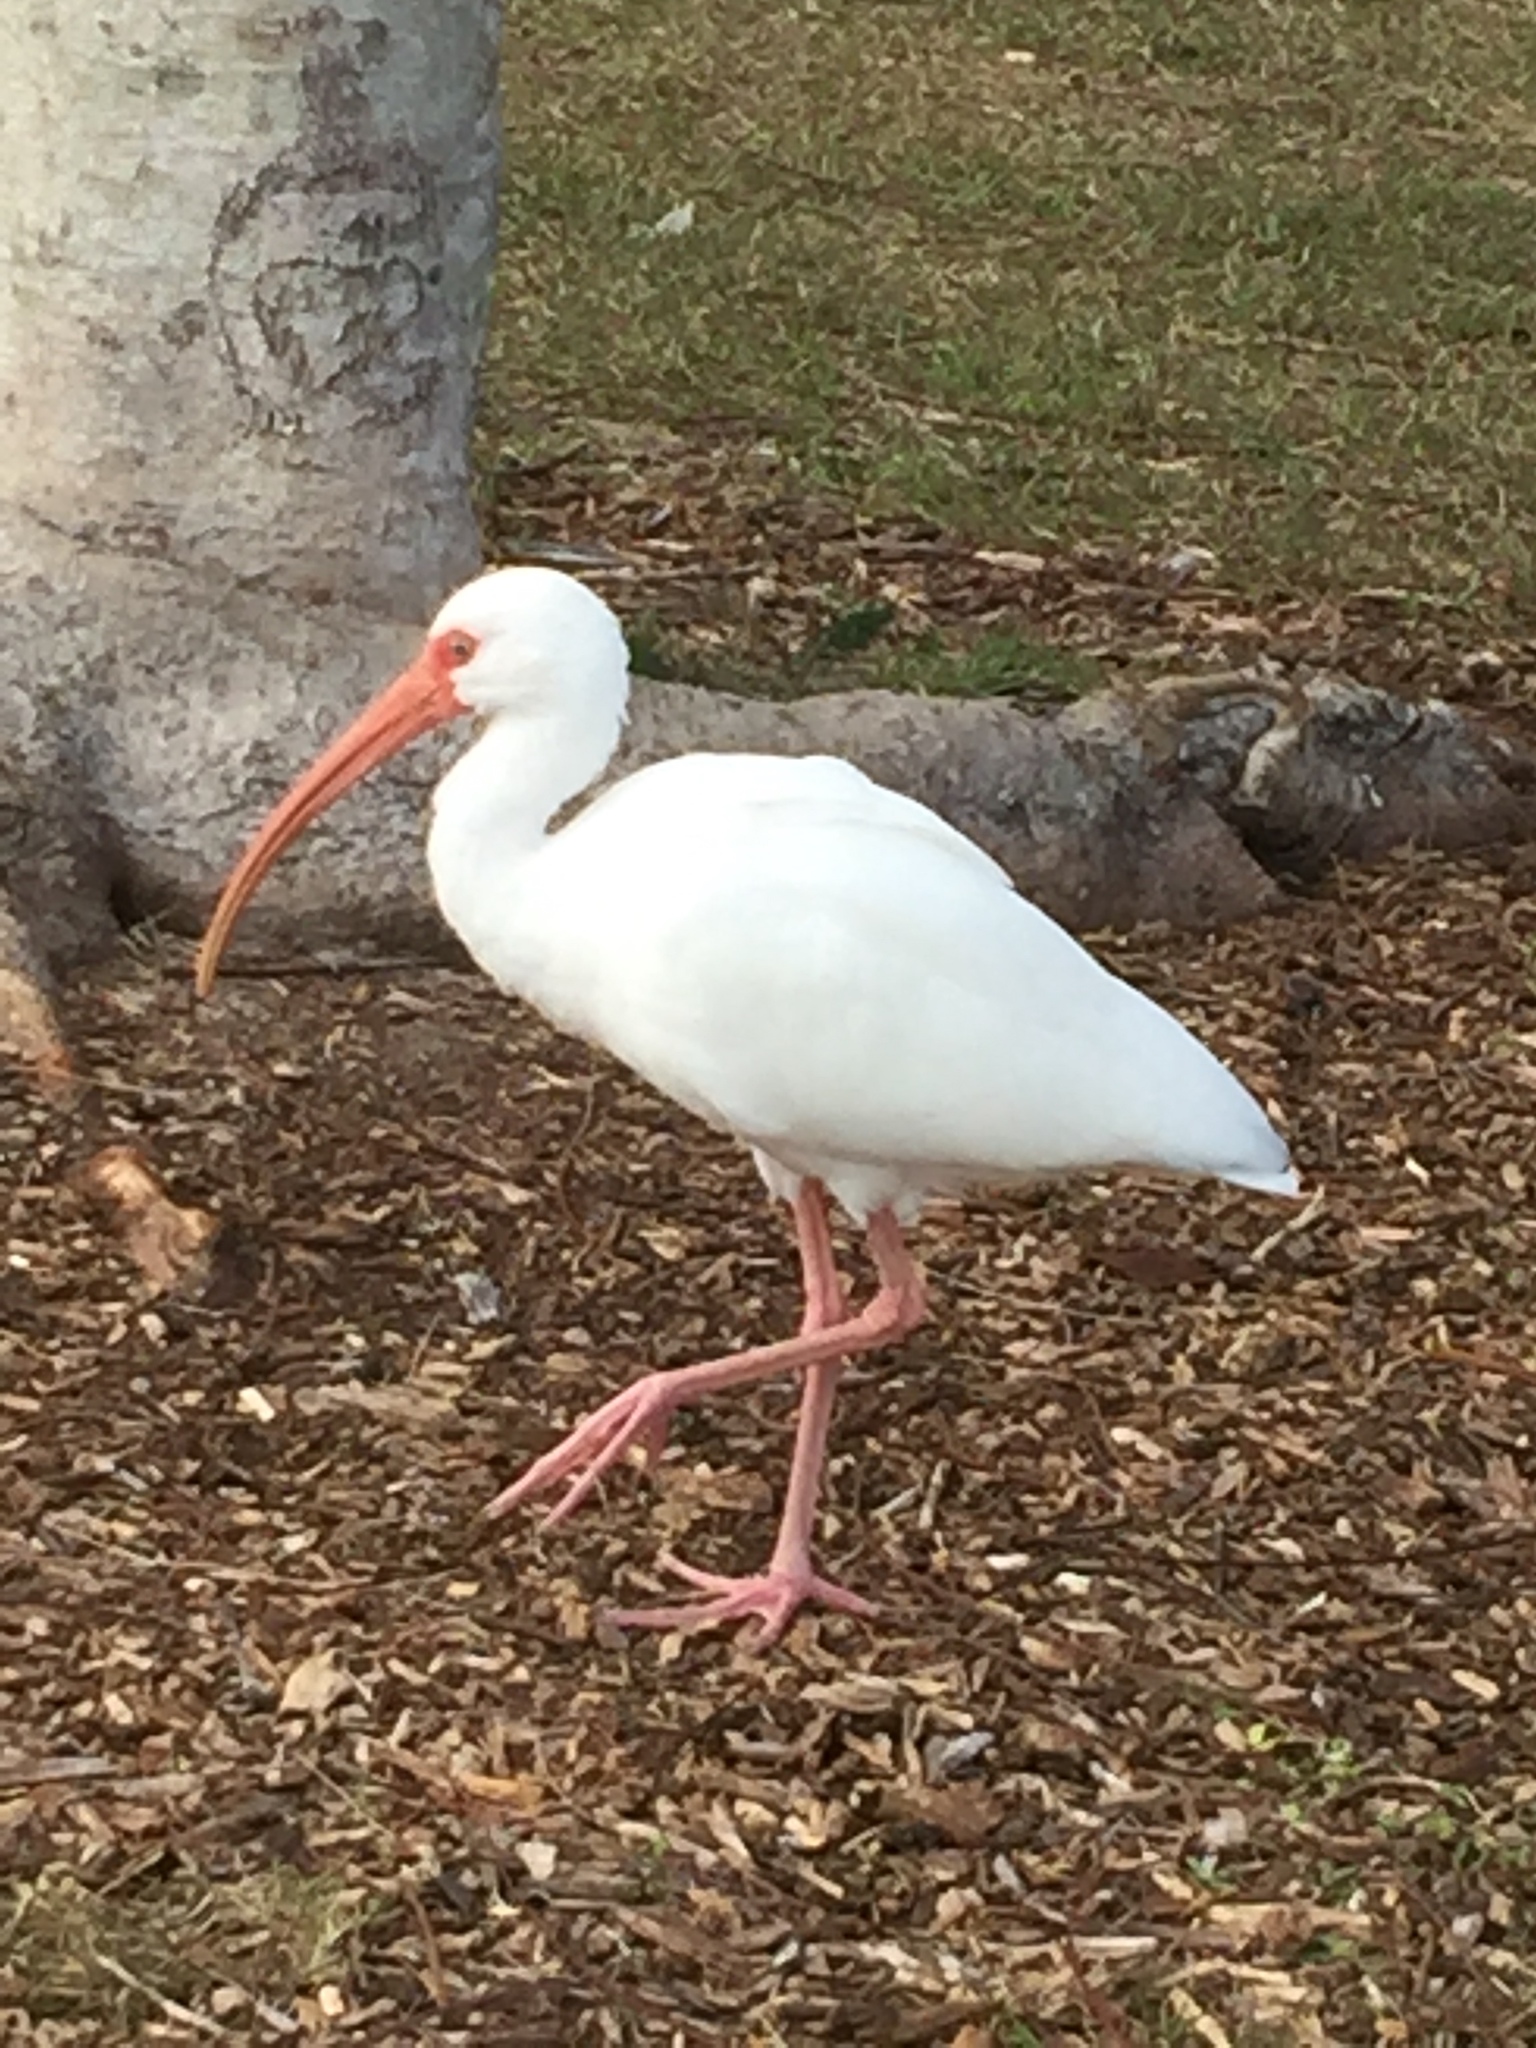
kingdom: Animalia
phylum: Chordata
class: Aves
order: Pelecaniformes
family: Threskiornithidae
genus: Eudocimus
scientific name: Eudocimus albus
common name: White ibis
